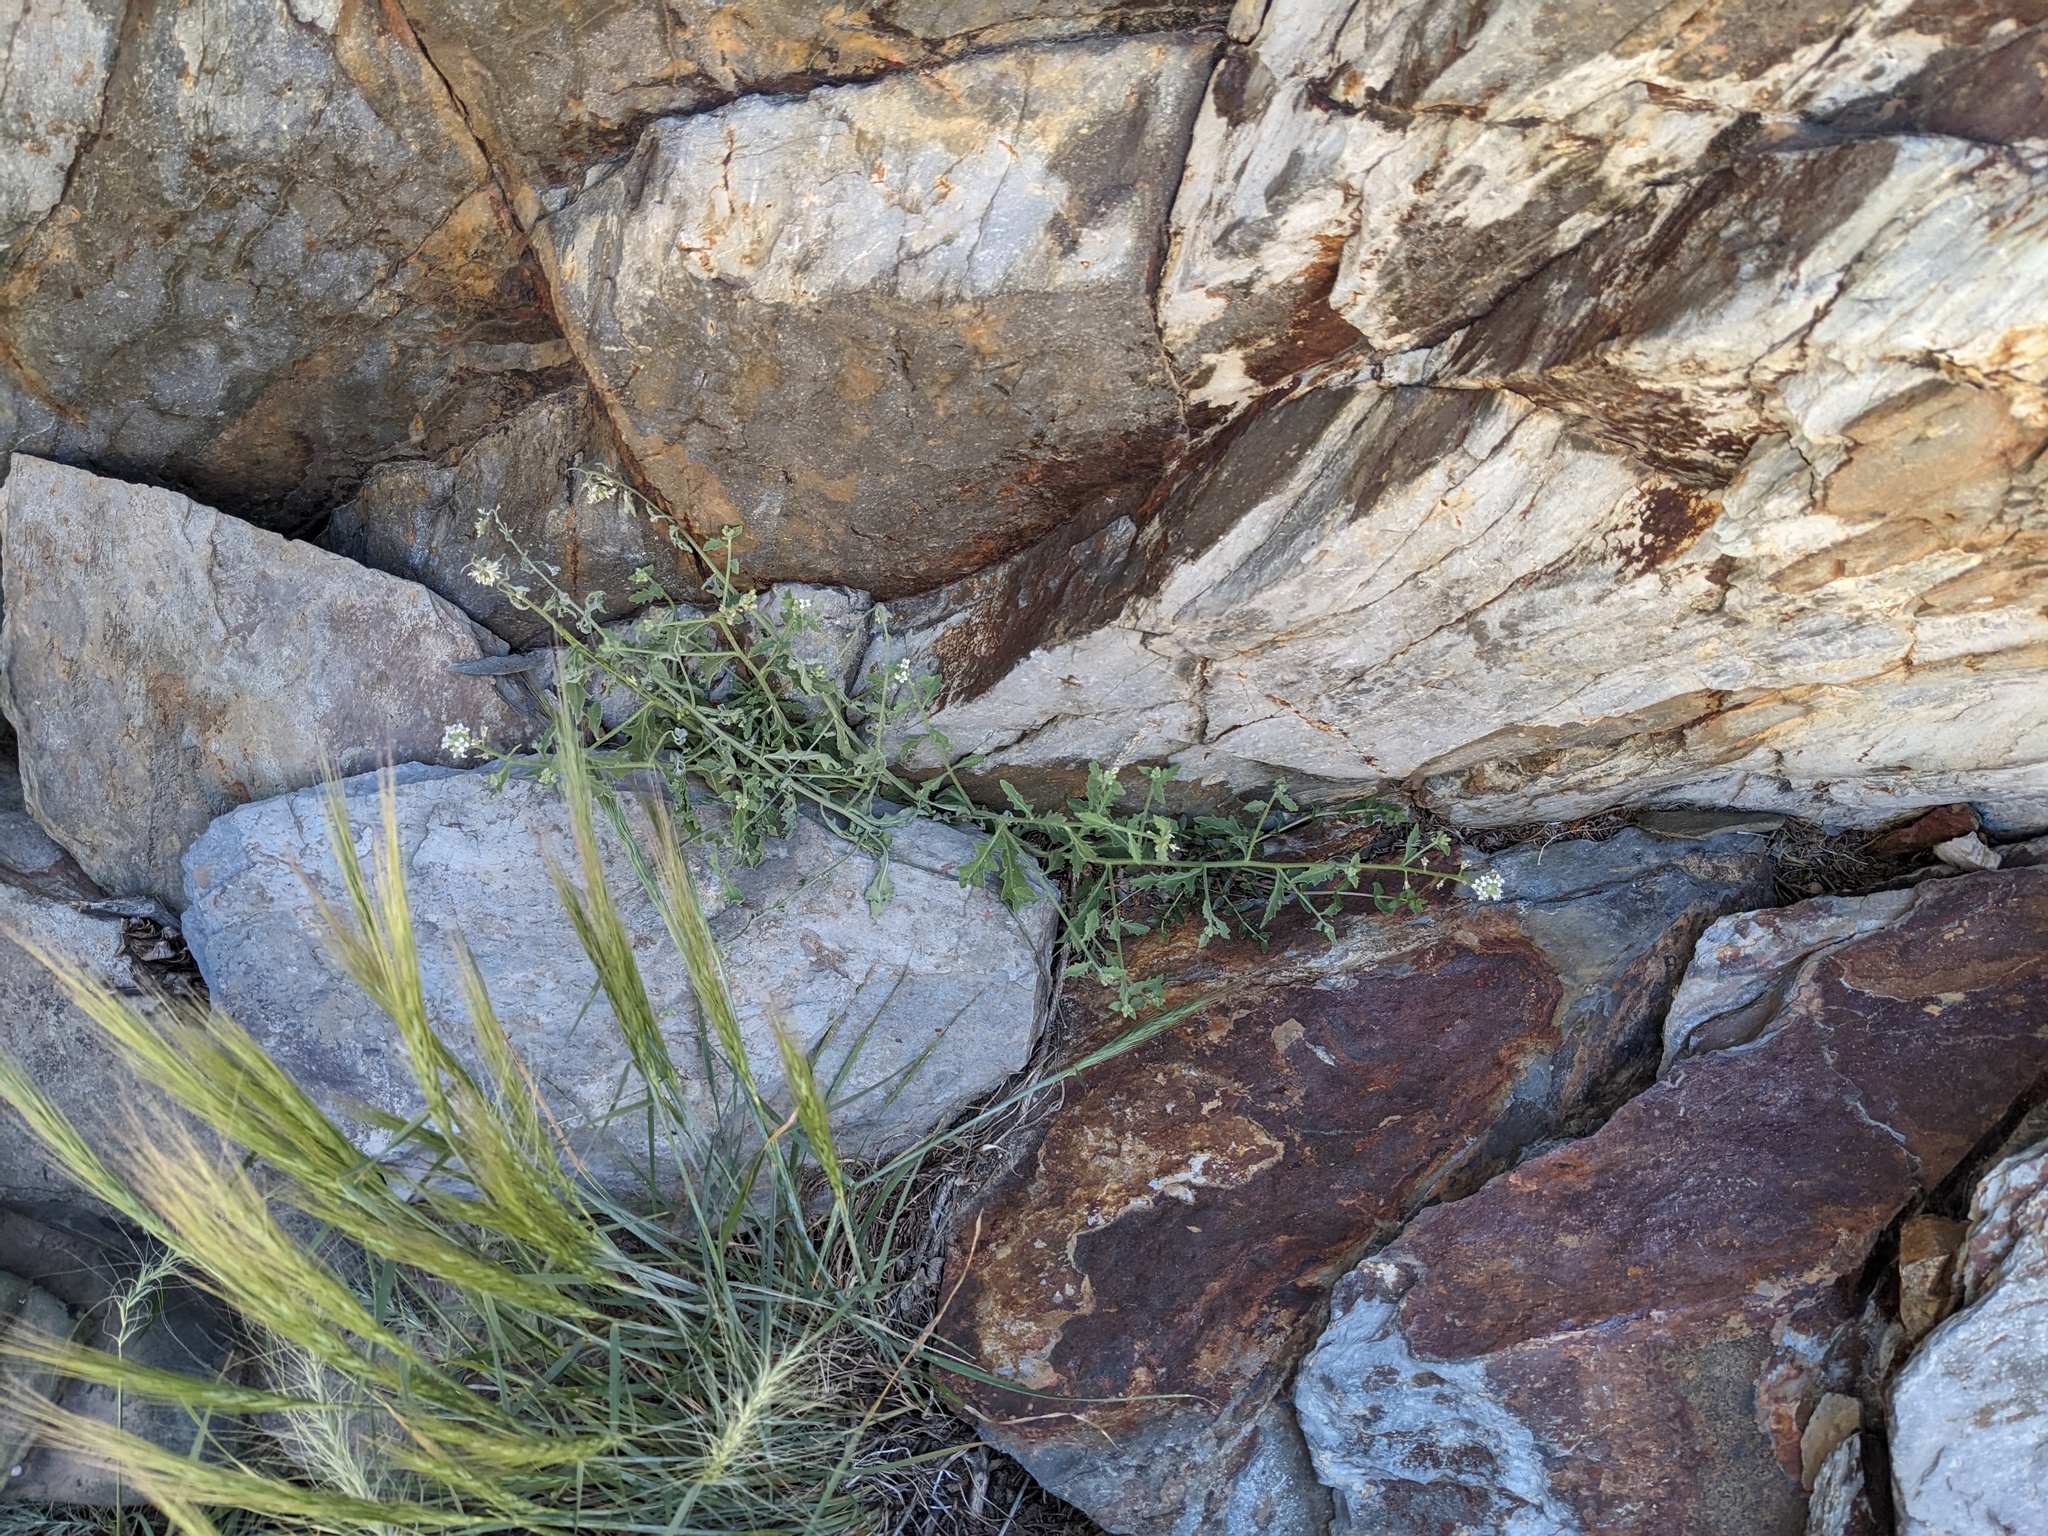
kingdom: Plantae
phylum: Tracheophyta
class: Magnoliopsida
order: Brassicales
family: Brassicaceae
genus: Halimolobos
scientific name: Halimolobos jaegeri
